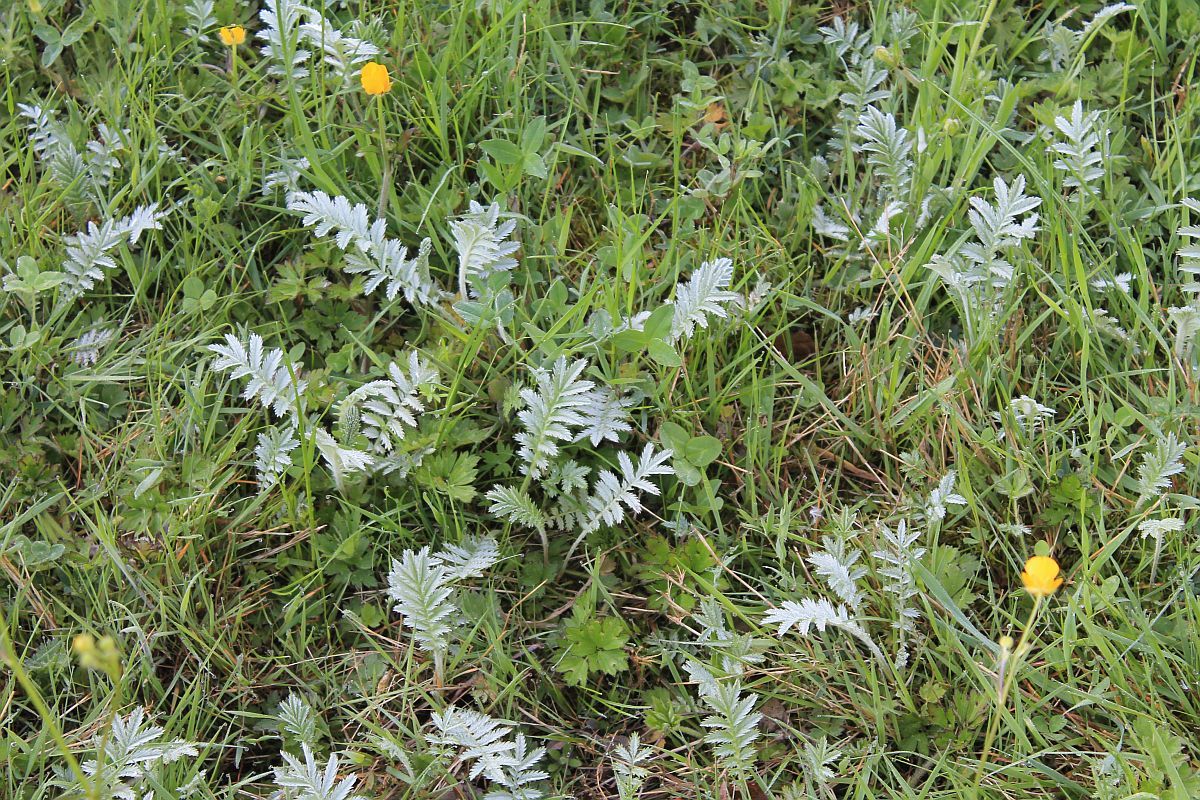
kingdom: Plantae
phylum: Tracheophyta
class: Magnoliopsida
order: Rosales
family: Rosaceae
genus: Argentina
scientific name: Argentina anserina
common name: Common silverweed
